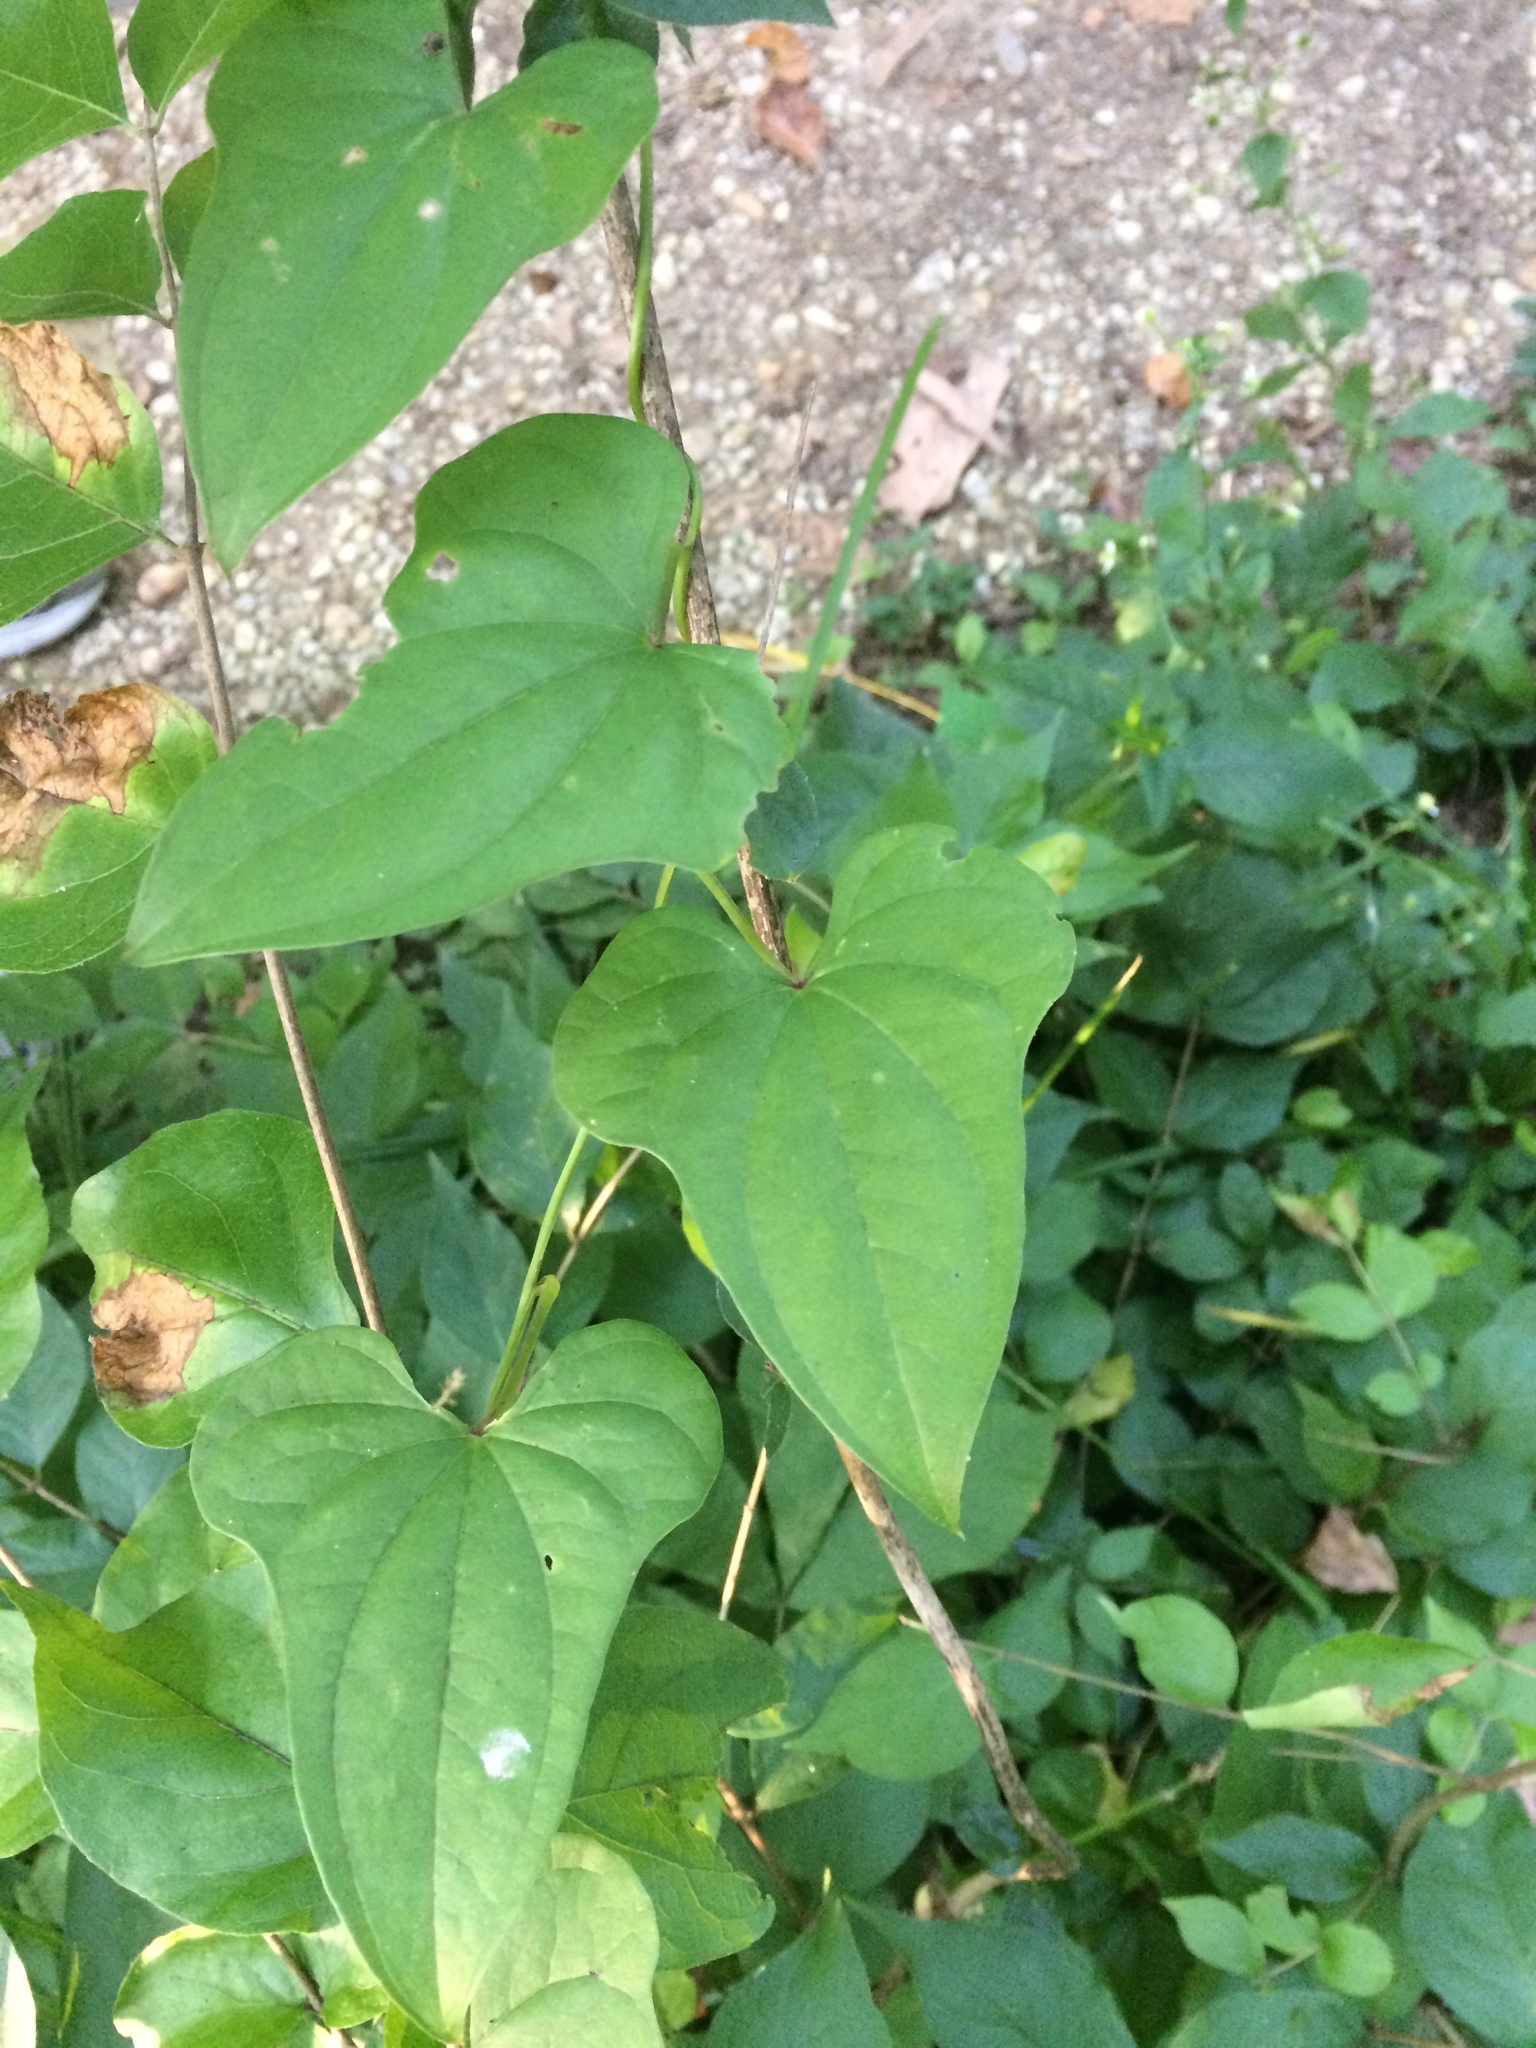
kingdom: Plantae
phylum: Tracheophyta
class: Liliopsida
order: Dioscoreales
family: Dioscoreaceae
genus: Dioscorea
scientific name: Dioscorea polystachya
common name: Chinese yam
